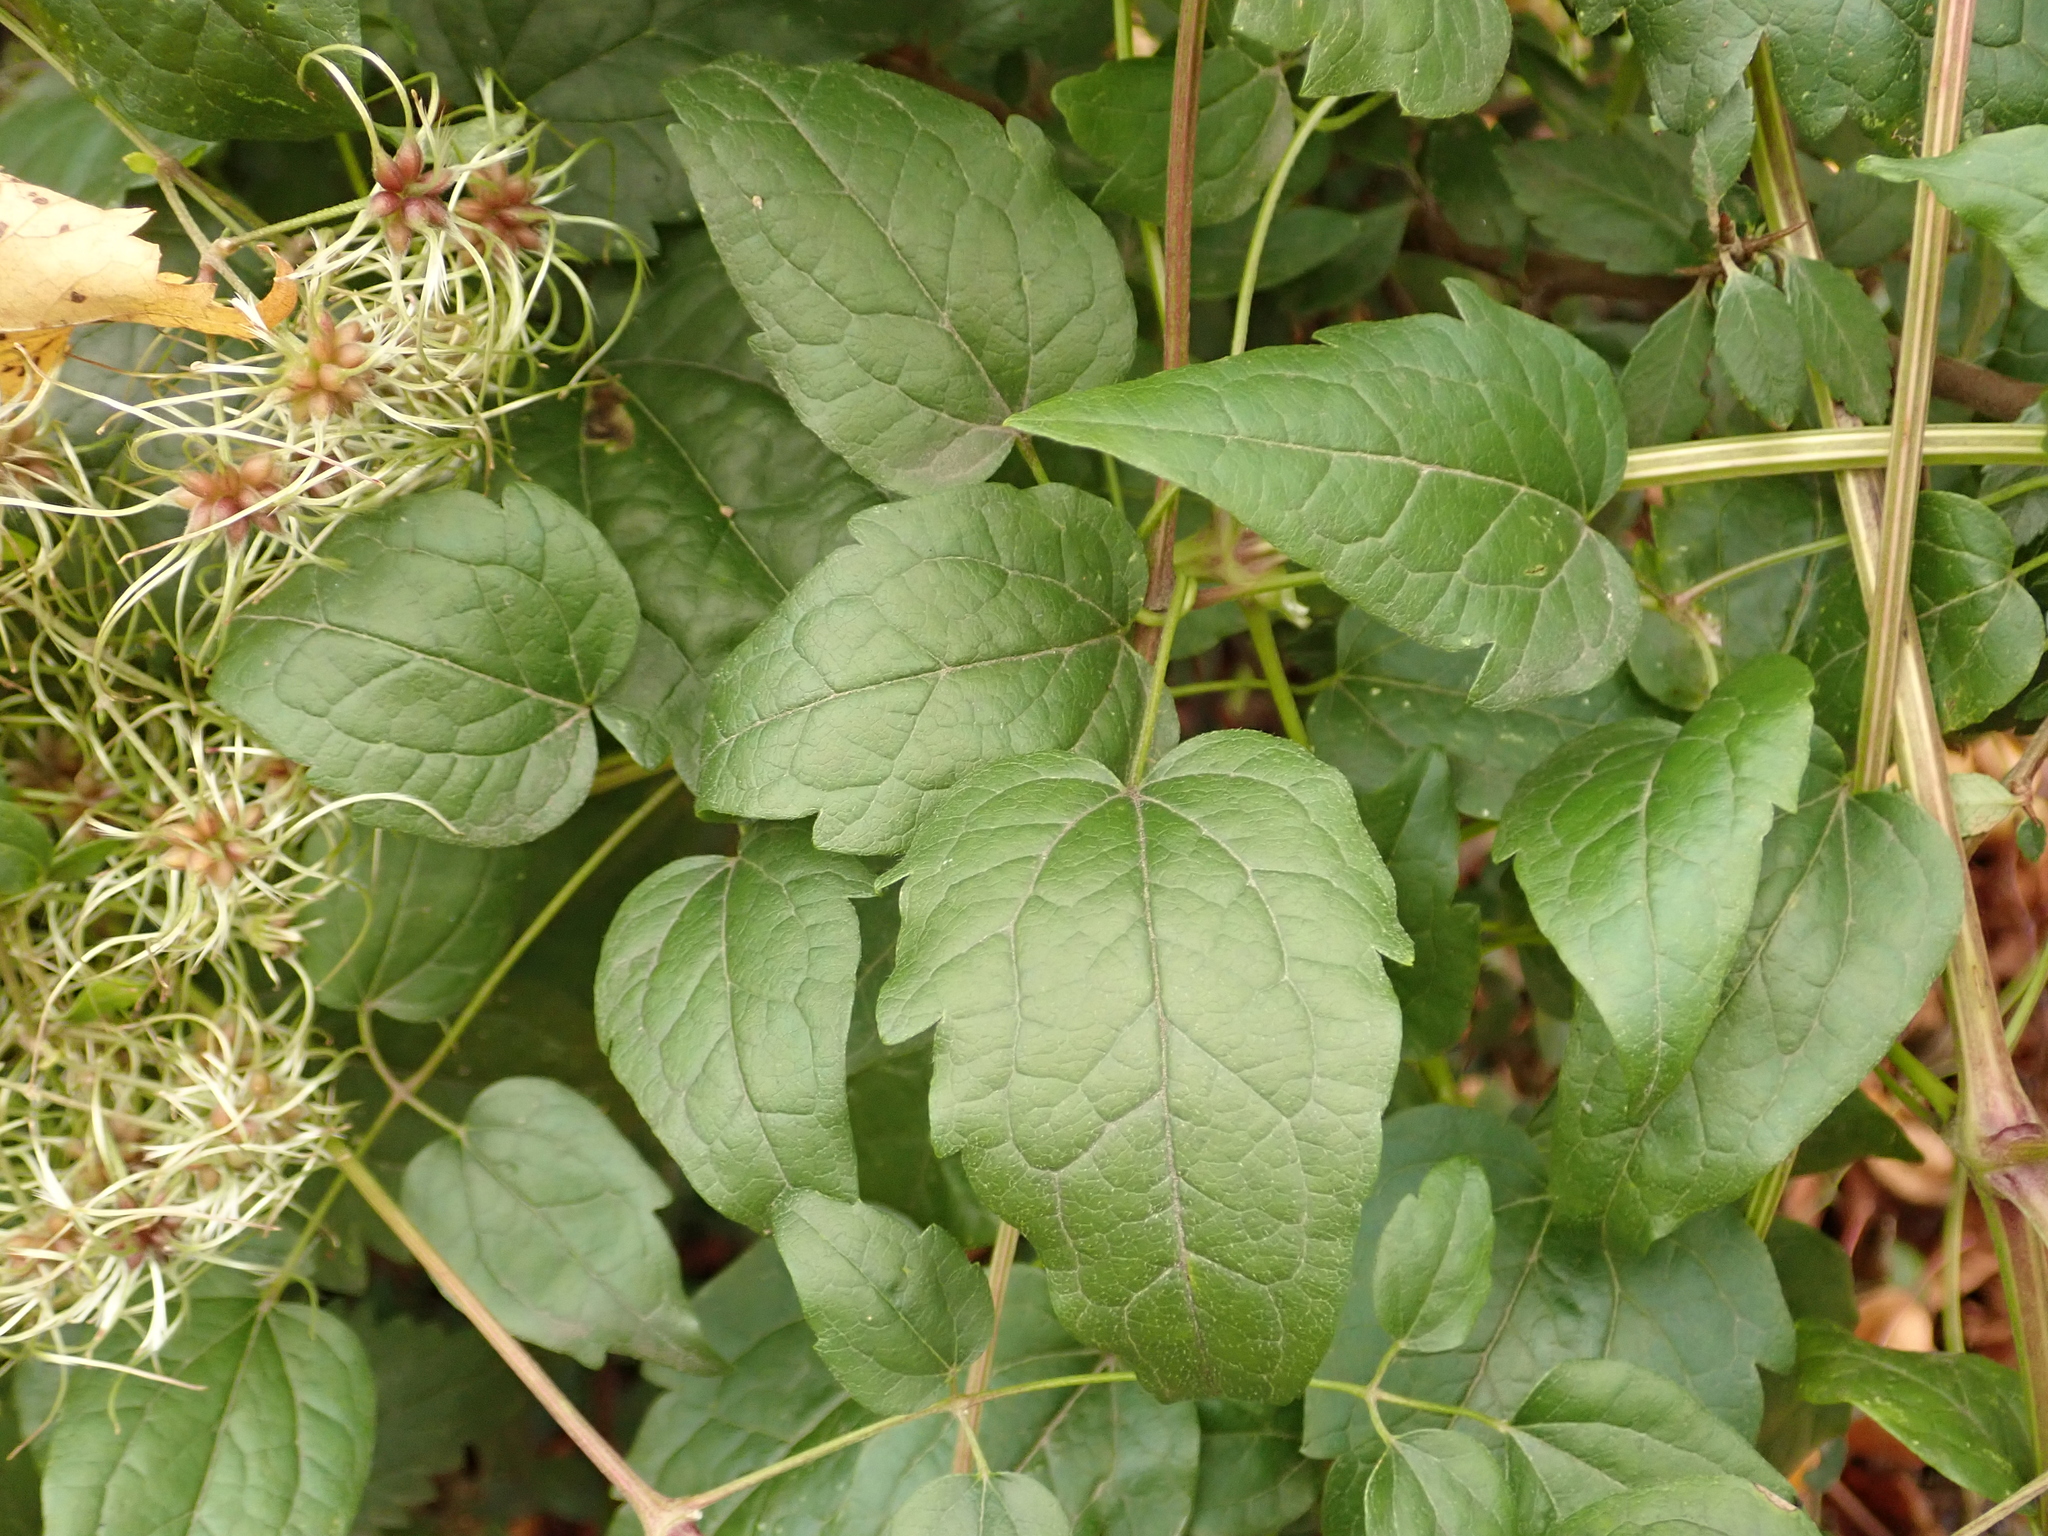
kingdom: Plantae
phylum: Tracheophyta
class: Magnoliopsida
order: Ranunculales
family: Ranunculaceae
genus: Clematis
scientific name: Clematis vitalba
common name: Evergreen clematis
